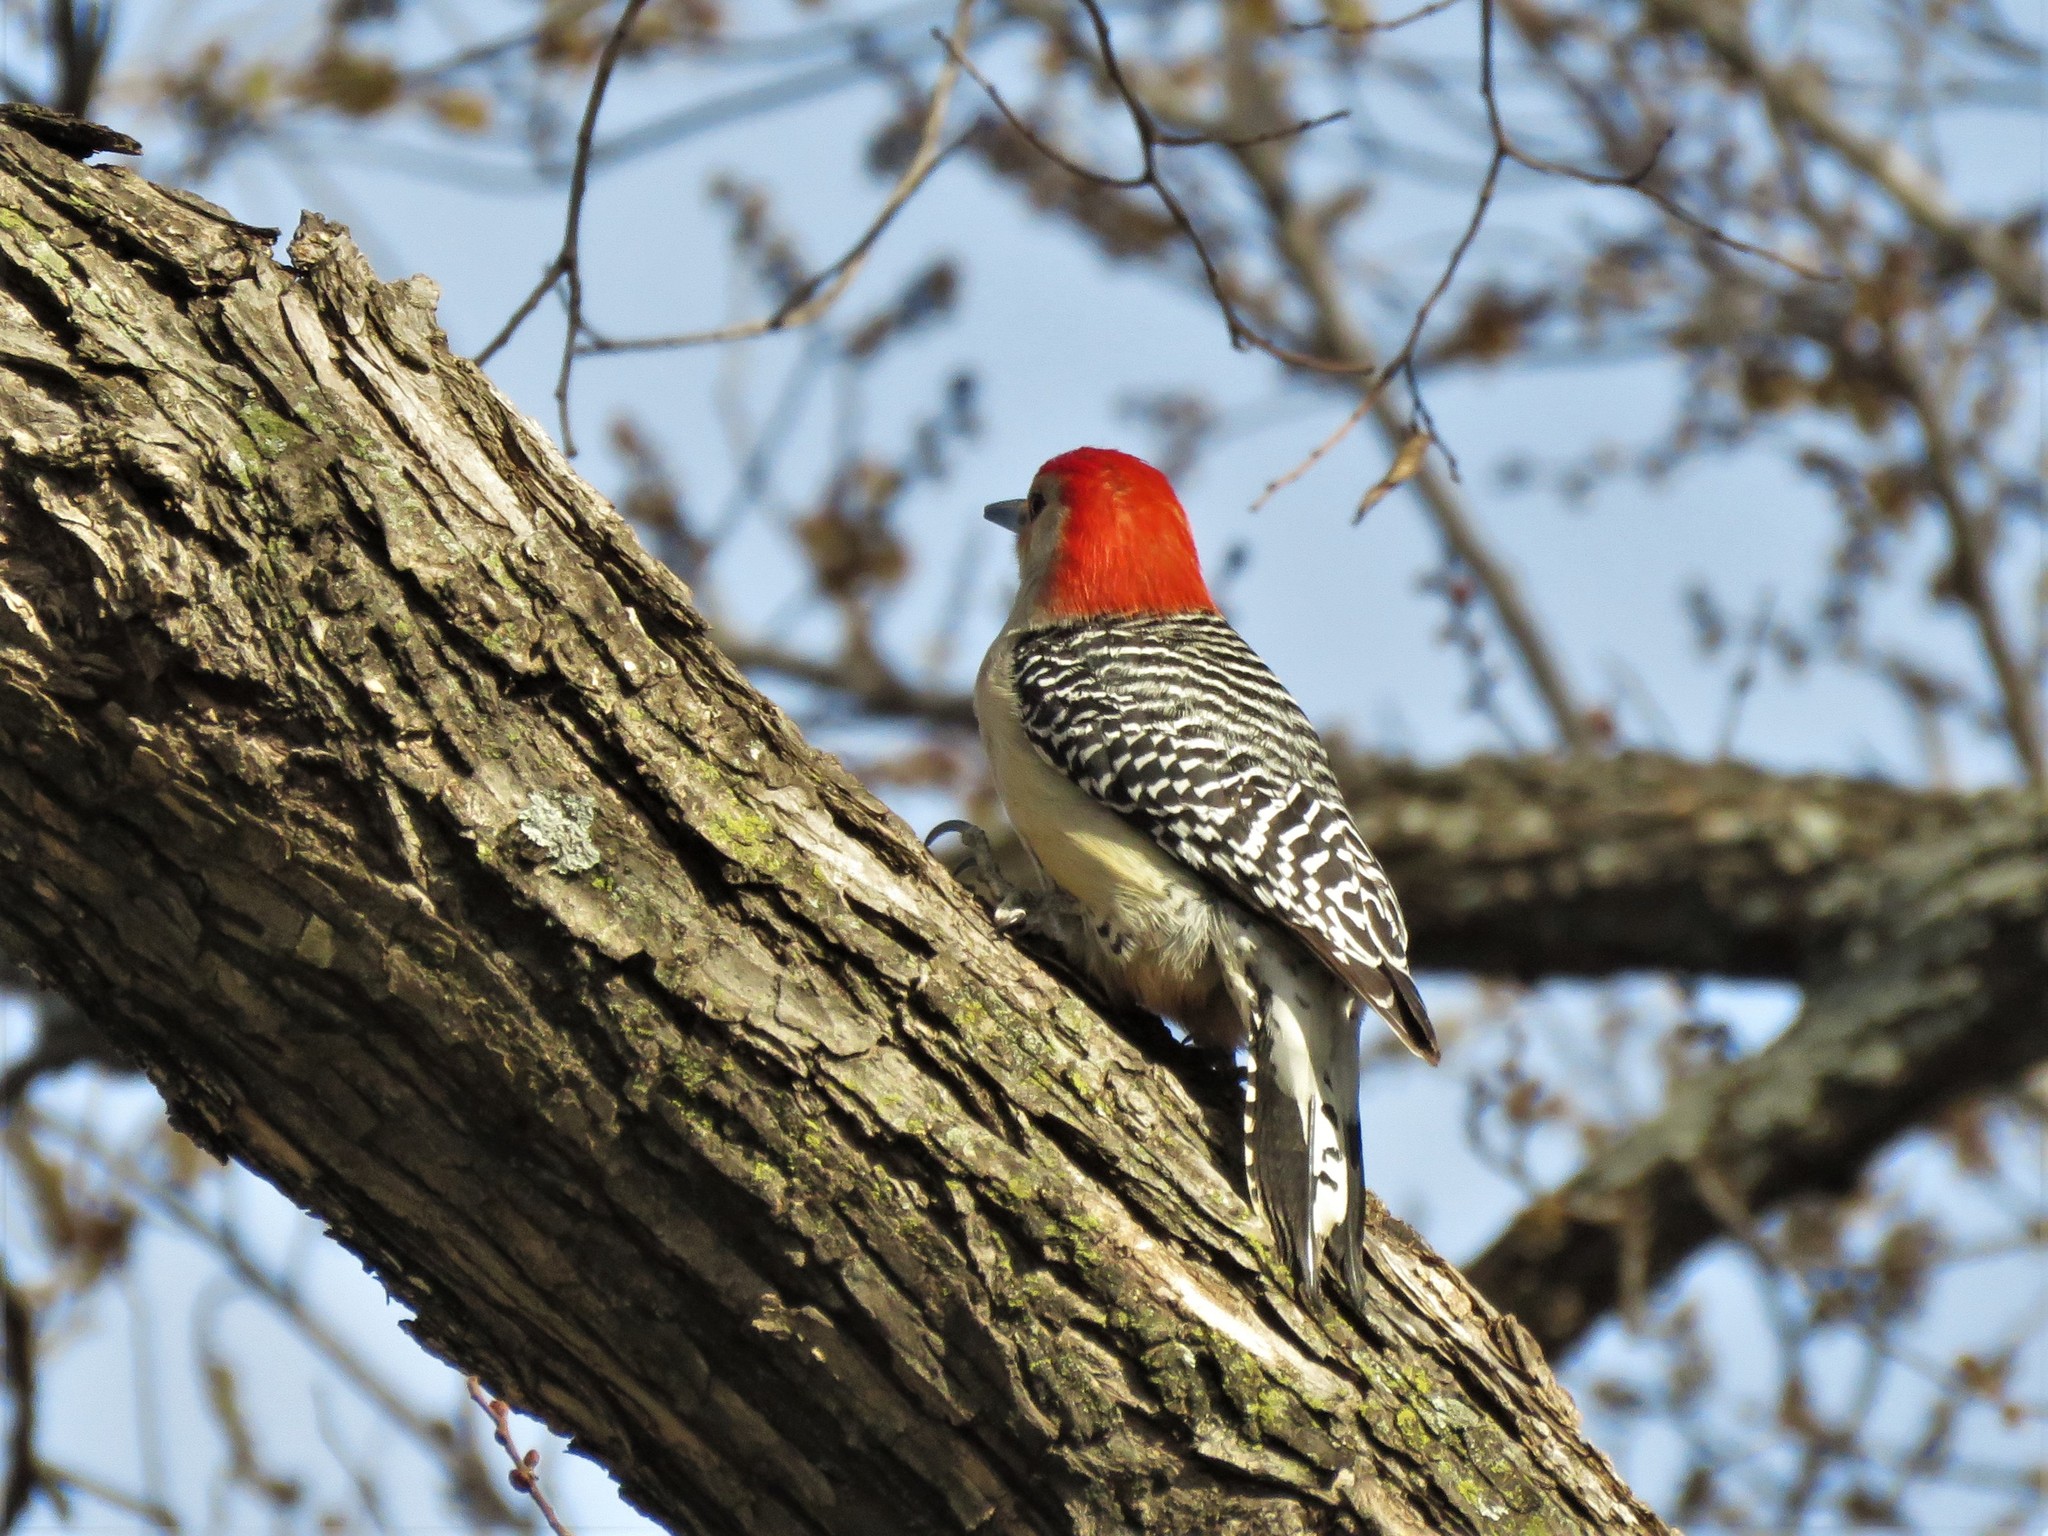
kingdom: Animalia
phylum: Chordata
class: Aves
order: Piciformes
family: Picidae
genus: Melanerpes
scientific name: Melanerpes carolinus
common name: Red-bellied woodpecker
